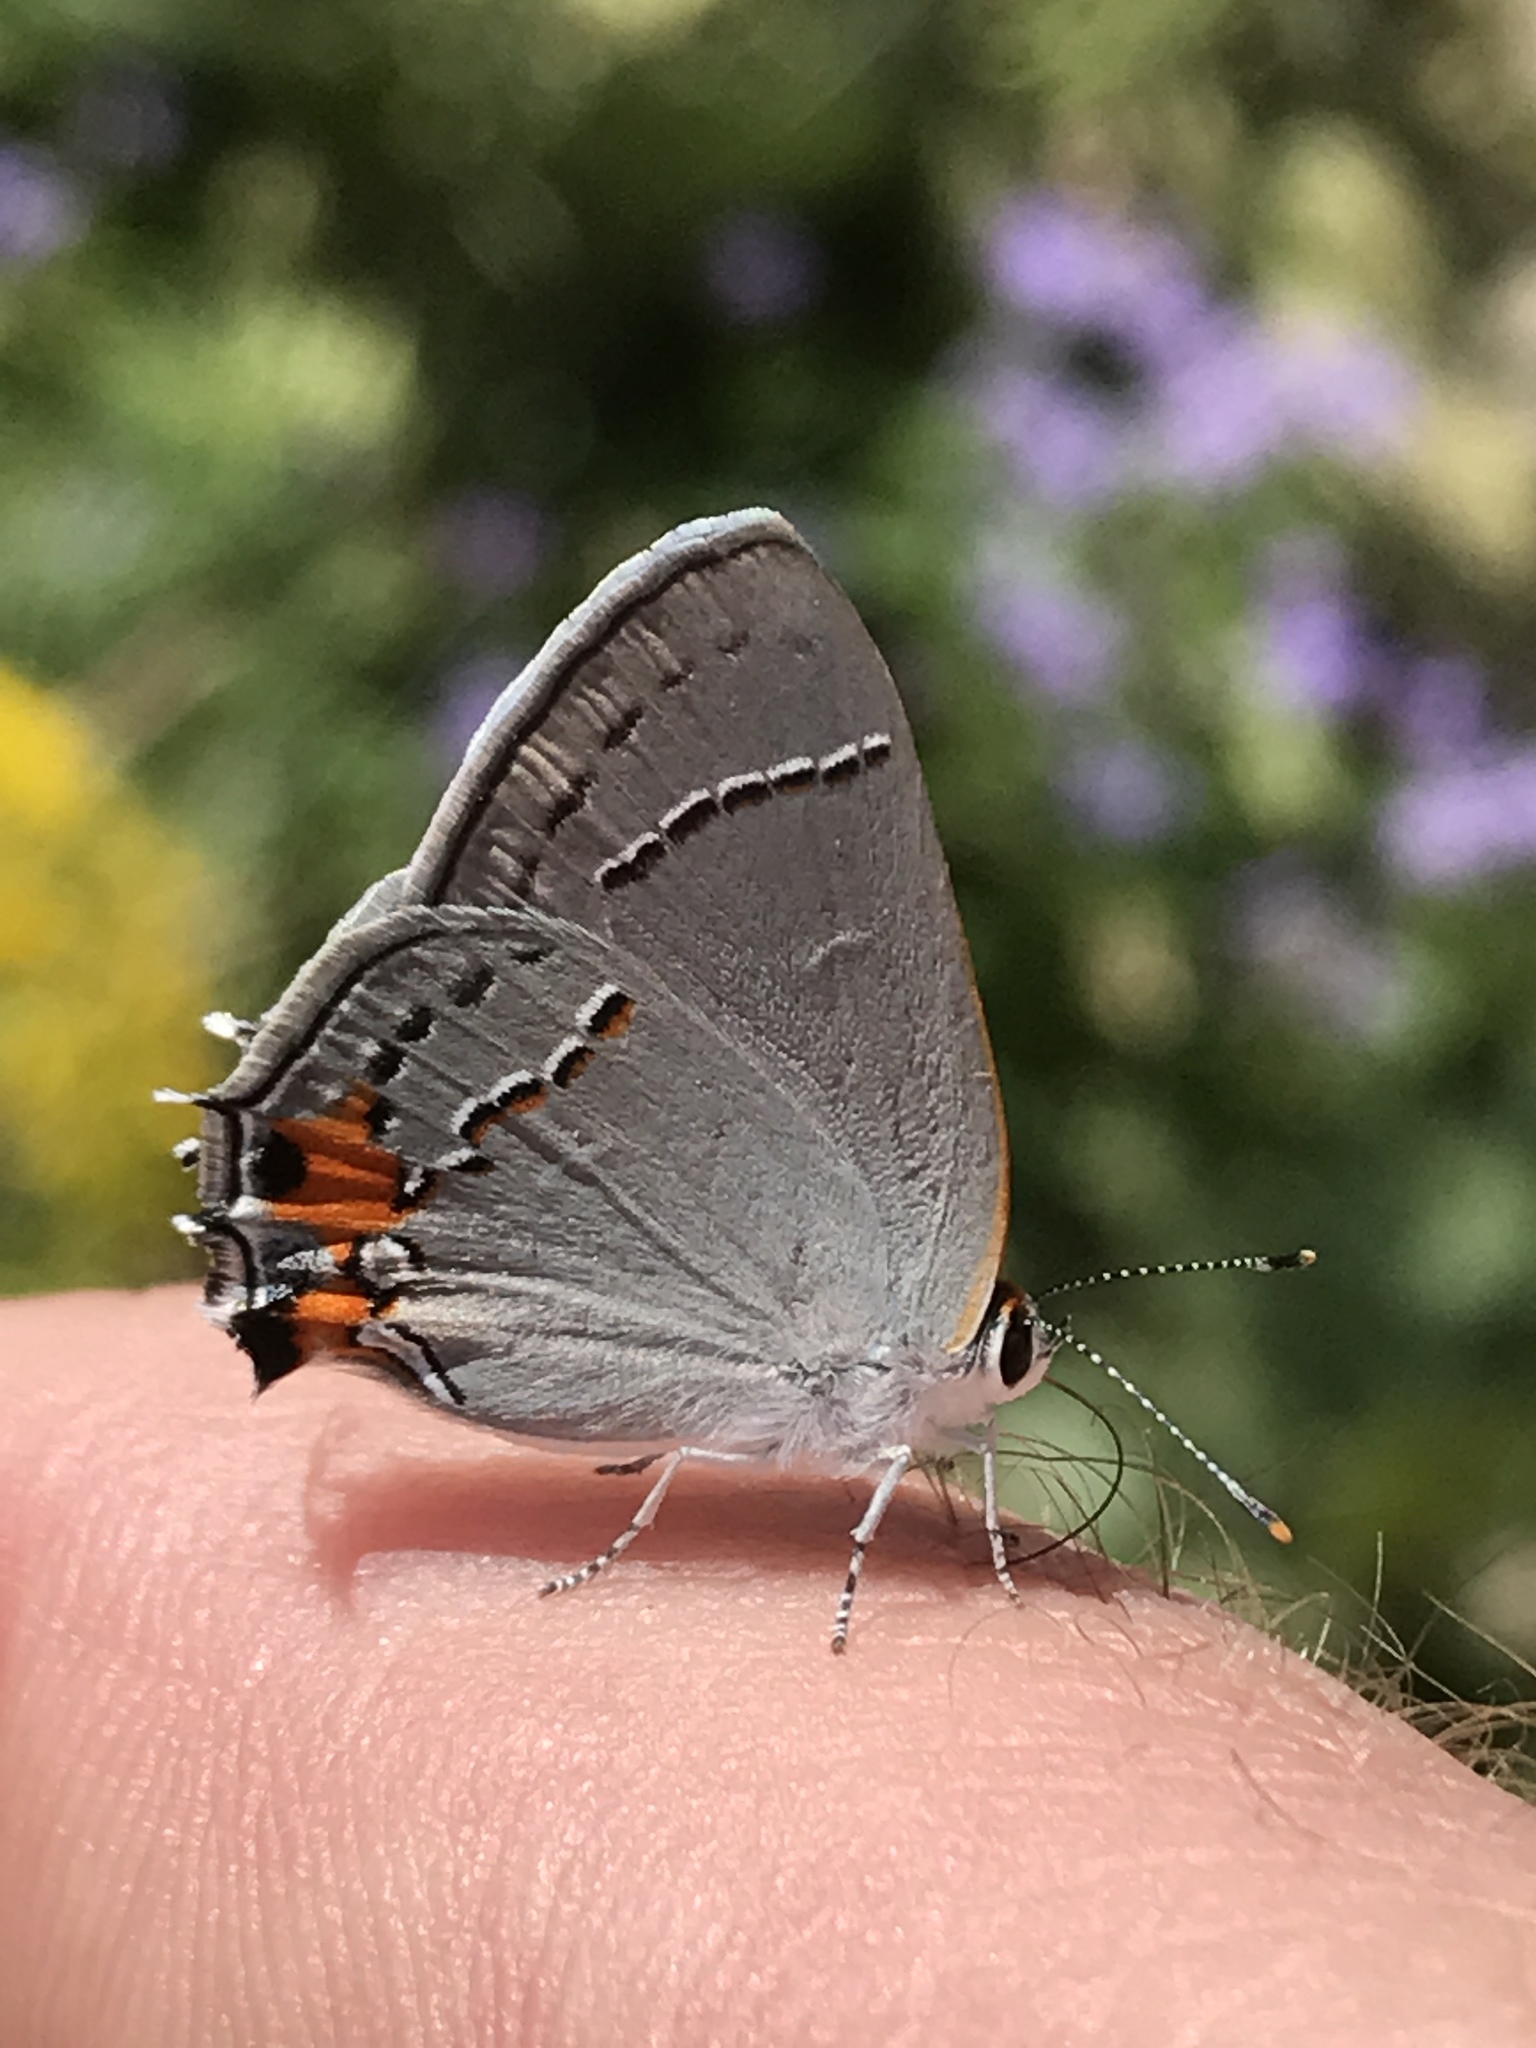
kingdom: Animalia
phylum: Arthropoda
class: Insecta
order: Lepidoptera
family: Lycaenidae
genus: Strymon
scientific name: Strymon melinus
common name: Gray hairstreak
